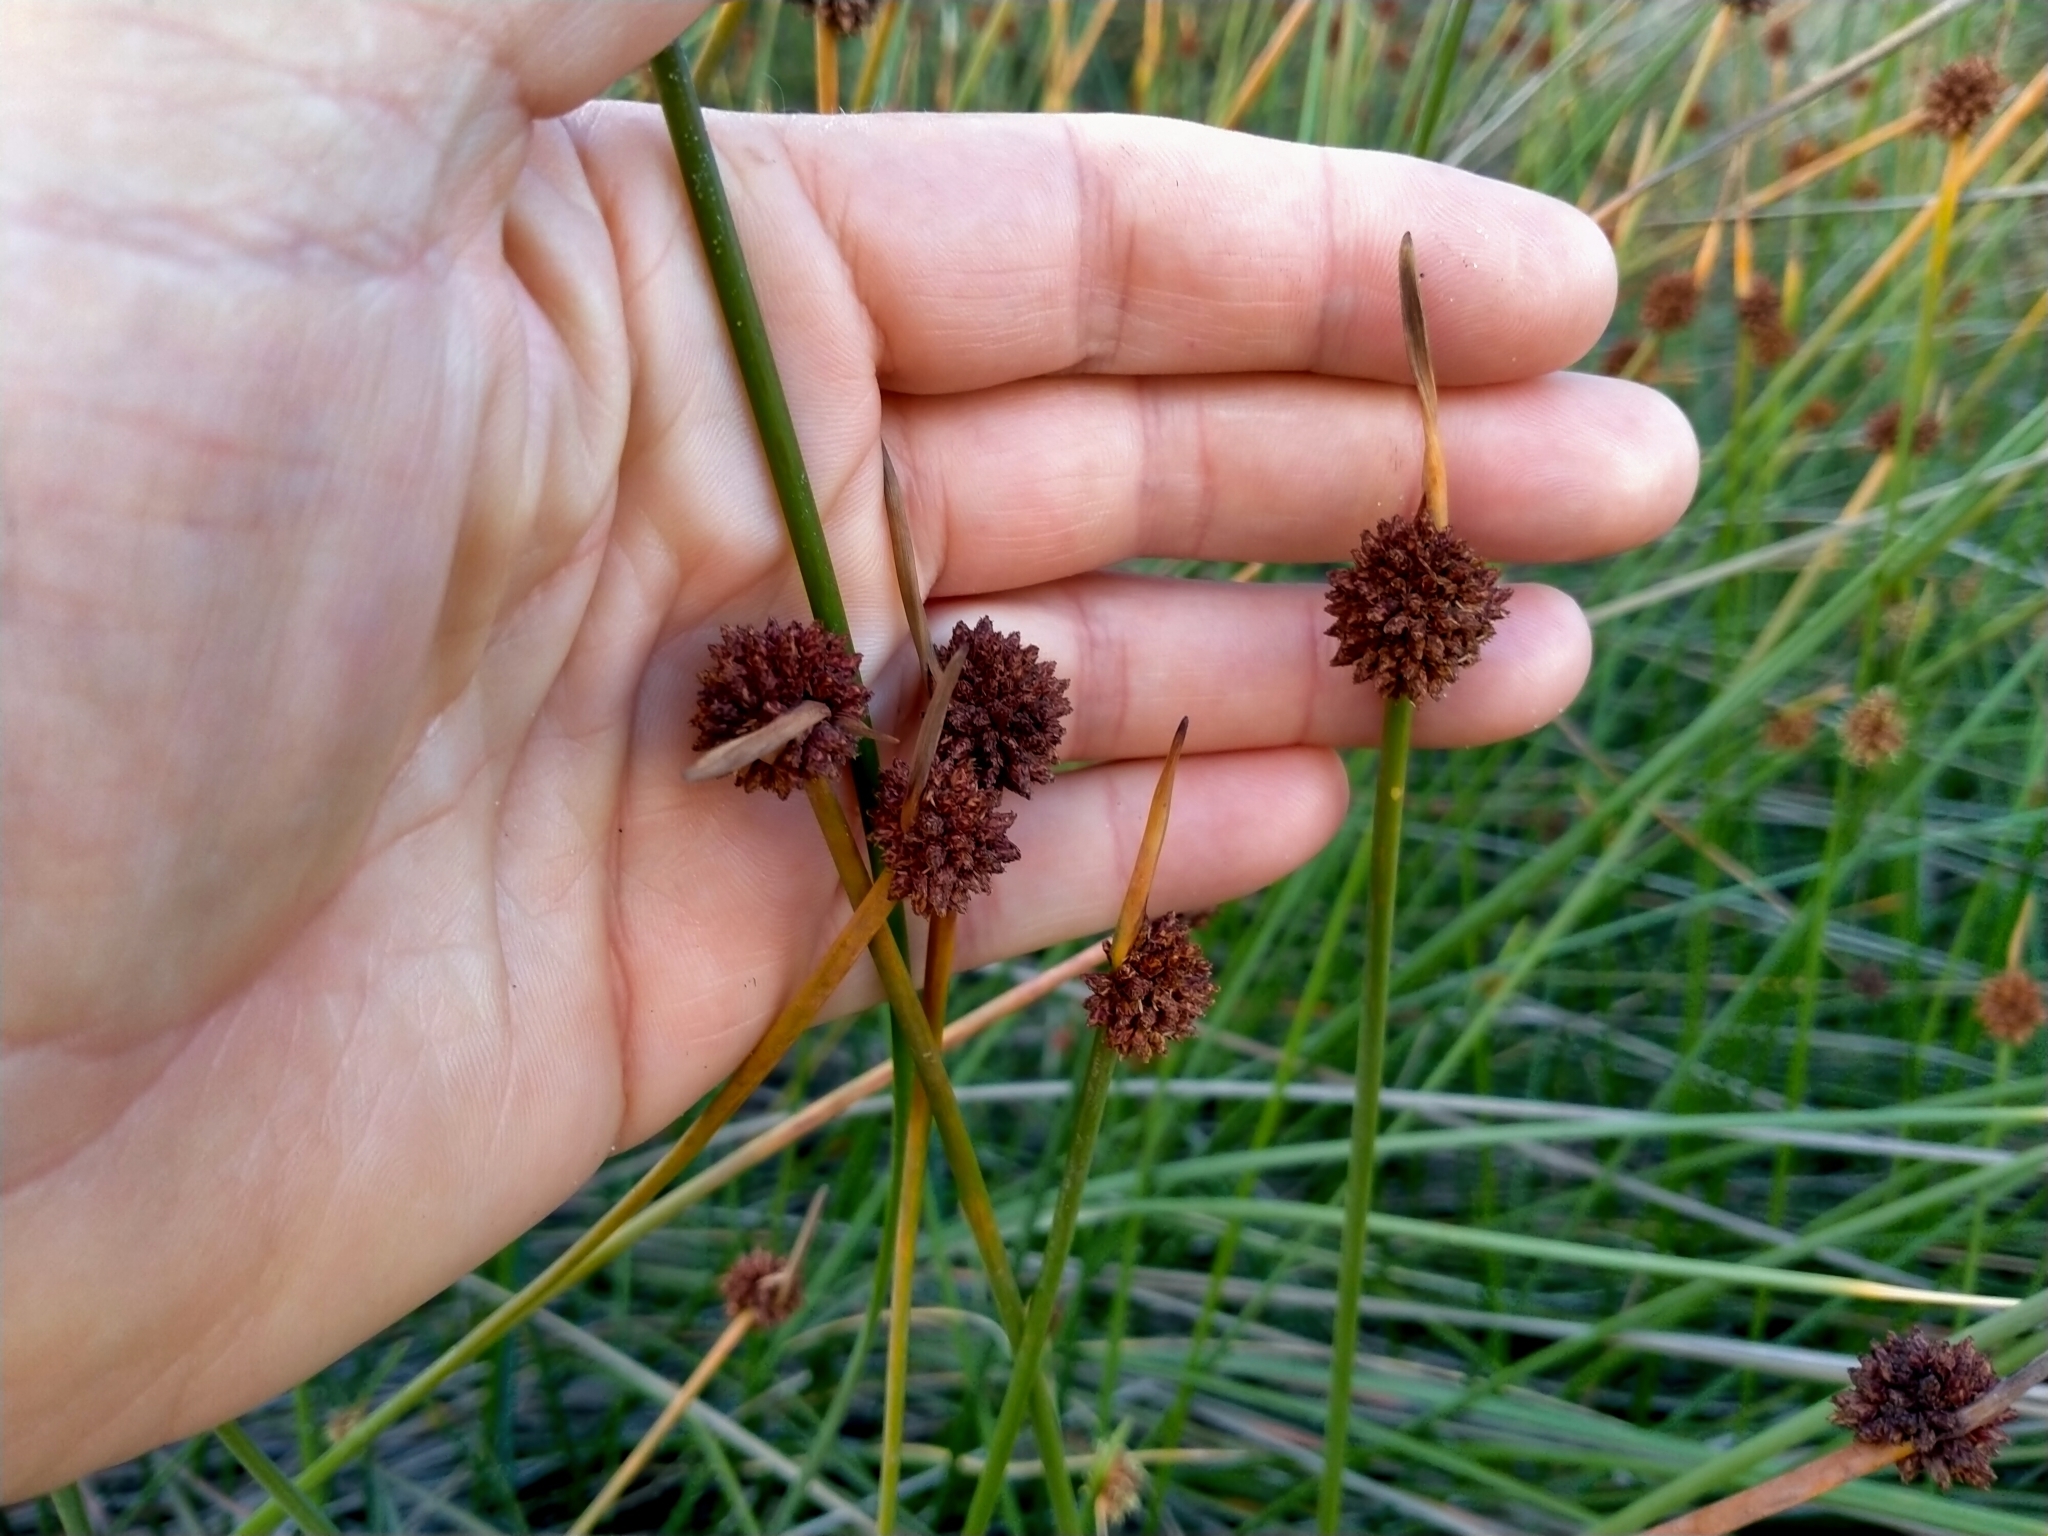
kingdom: Plantae
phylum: Tracheophyta
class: Liliopsida
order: Poales
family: Cyperaceae
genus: Ficinia
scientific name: Ficinia nodosa
